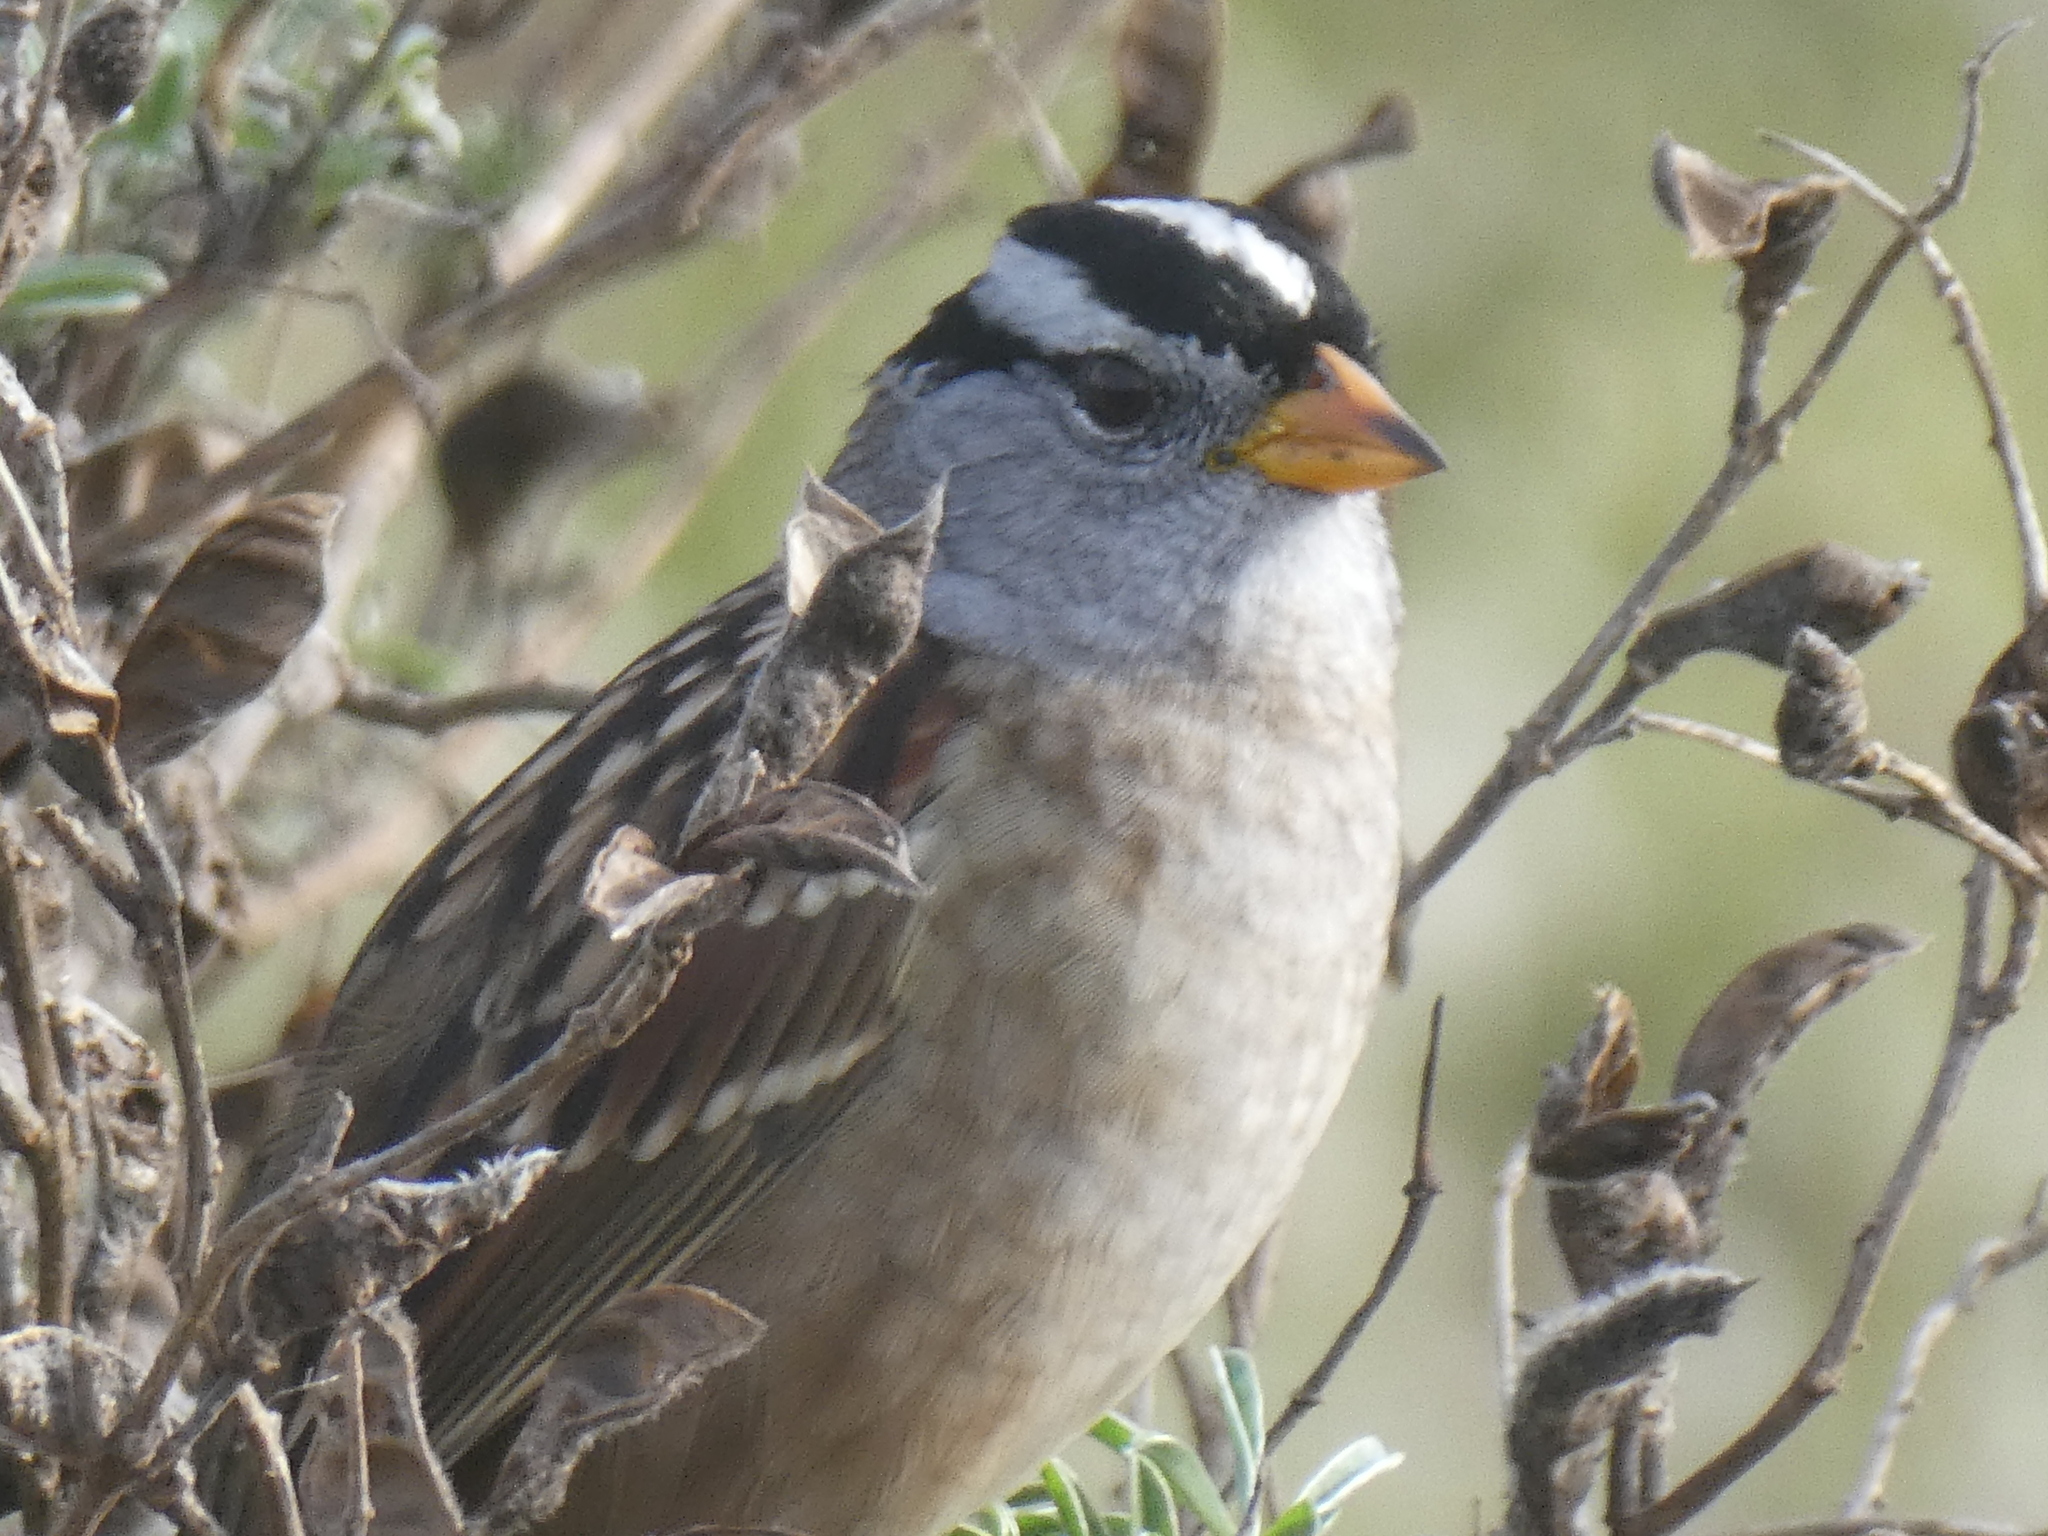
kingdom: Animalia
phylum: Chordata
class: Aves
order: Passeriformes
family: Passerellidae
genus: Zonotrichia
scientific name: Zonotrichia leucophrys
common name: White-crowned sparrow
